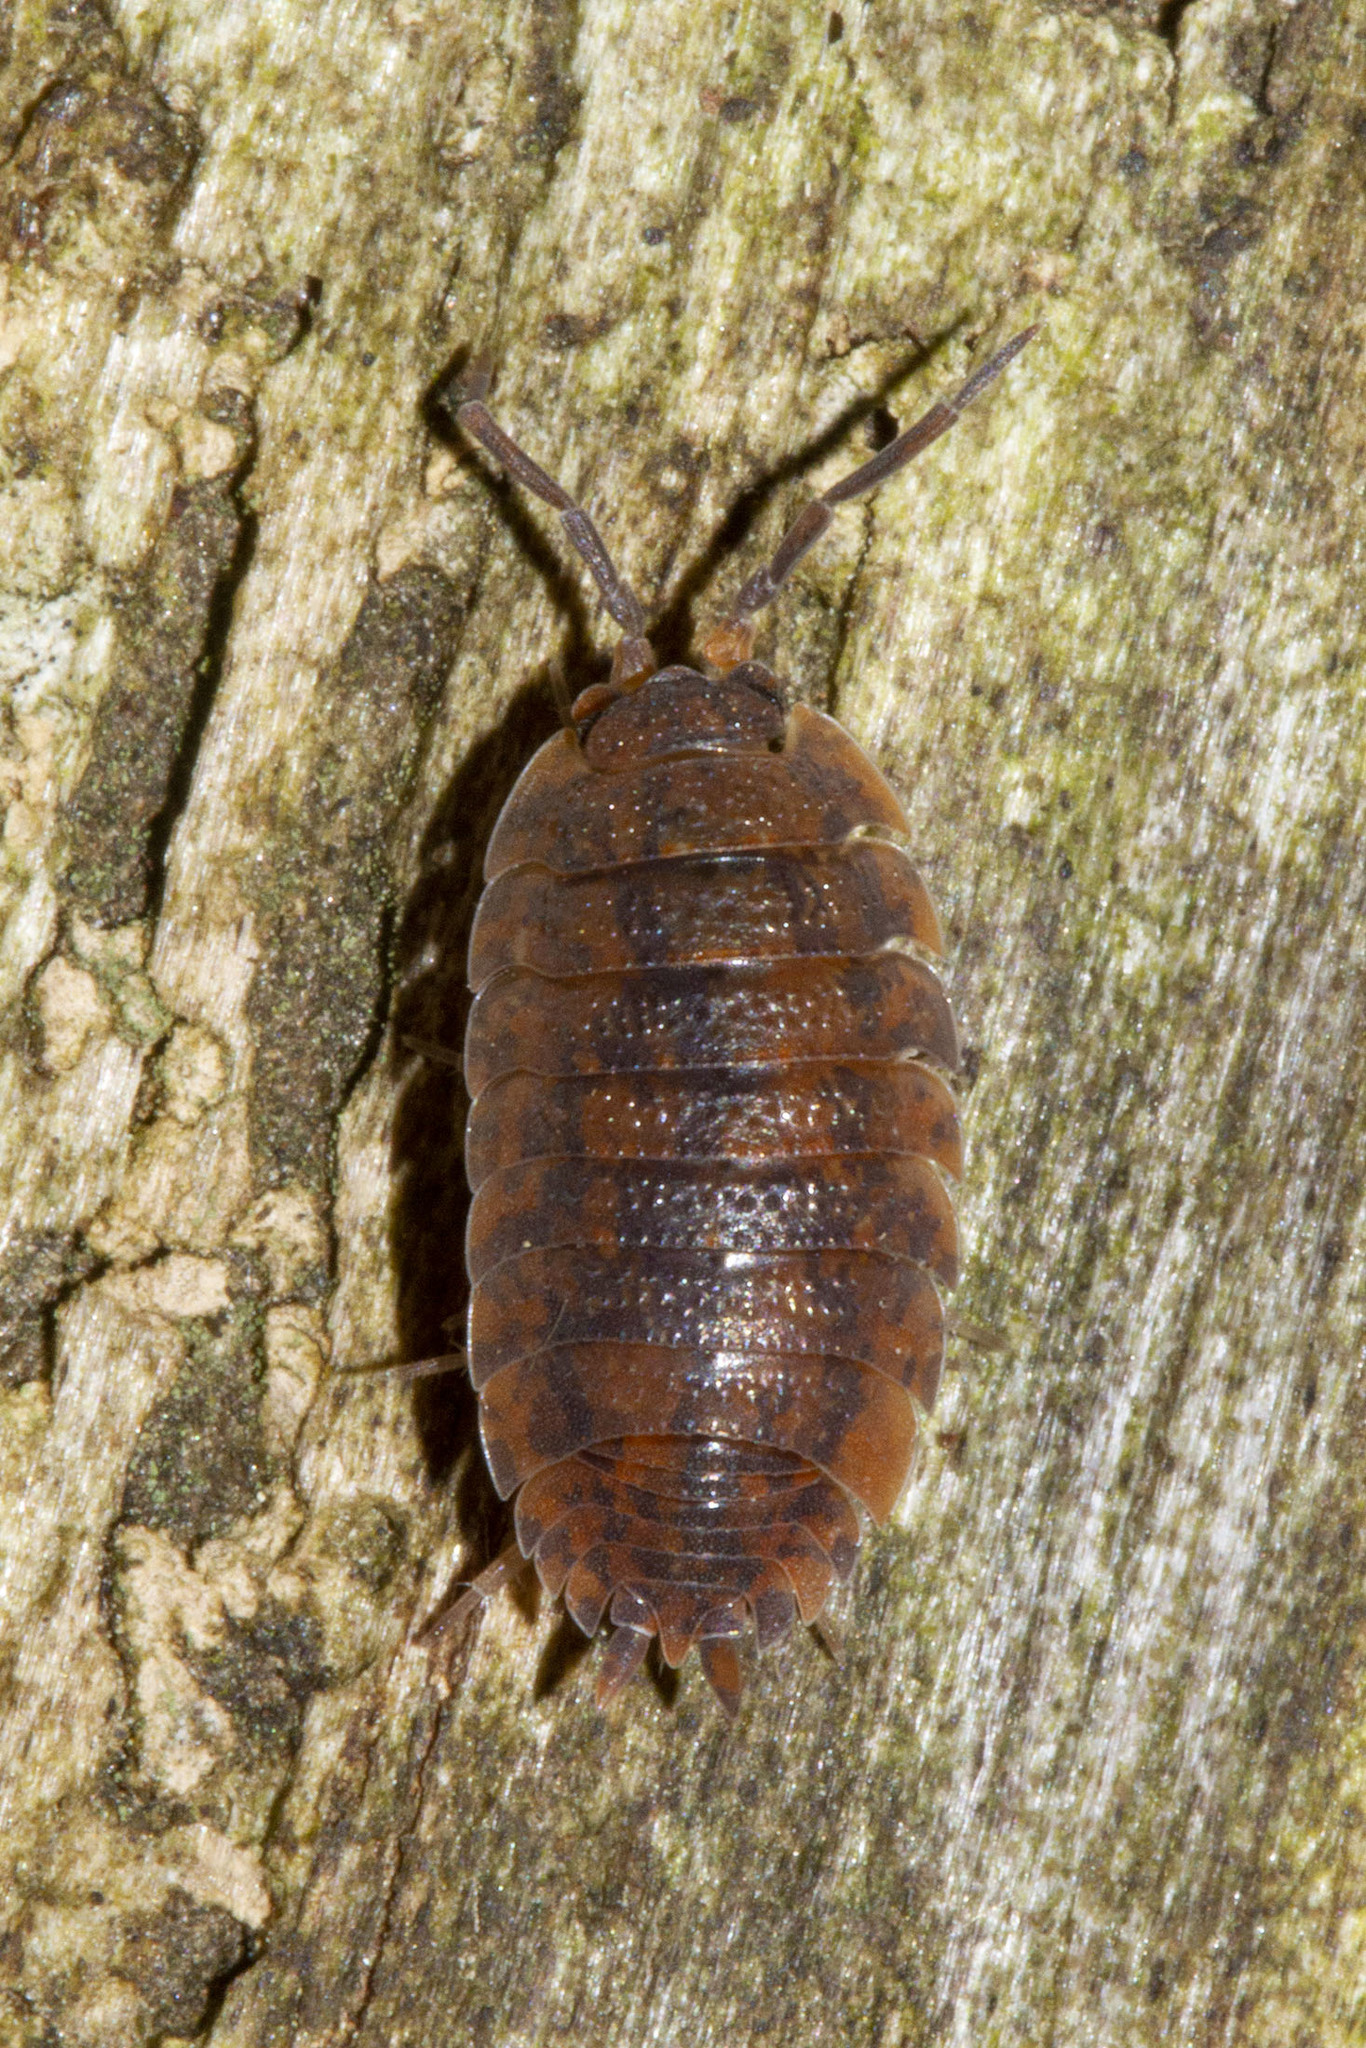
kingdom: Animalia
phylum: Arthropoda
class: Malacostraca
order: Isopoda
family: Porcellionidae
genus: Porcellio
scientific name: Porcellio scaber
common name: Common rough woodlouse
